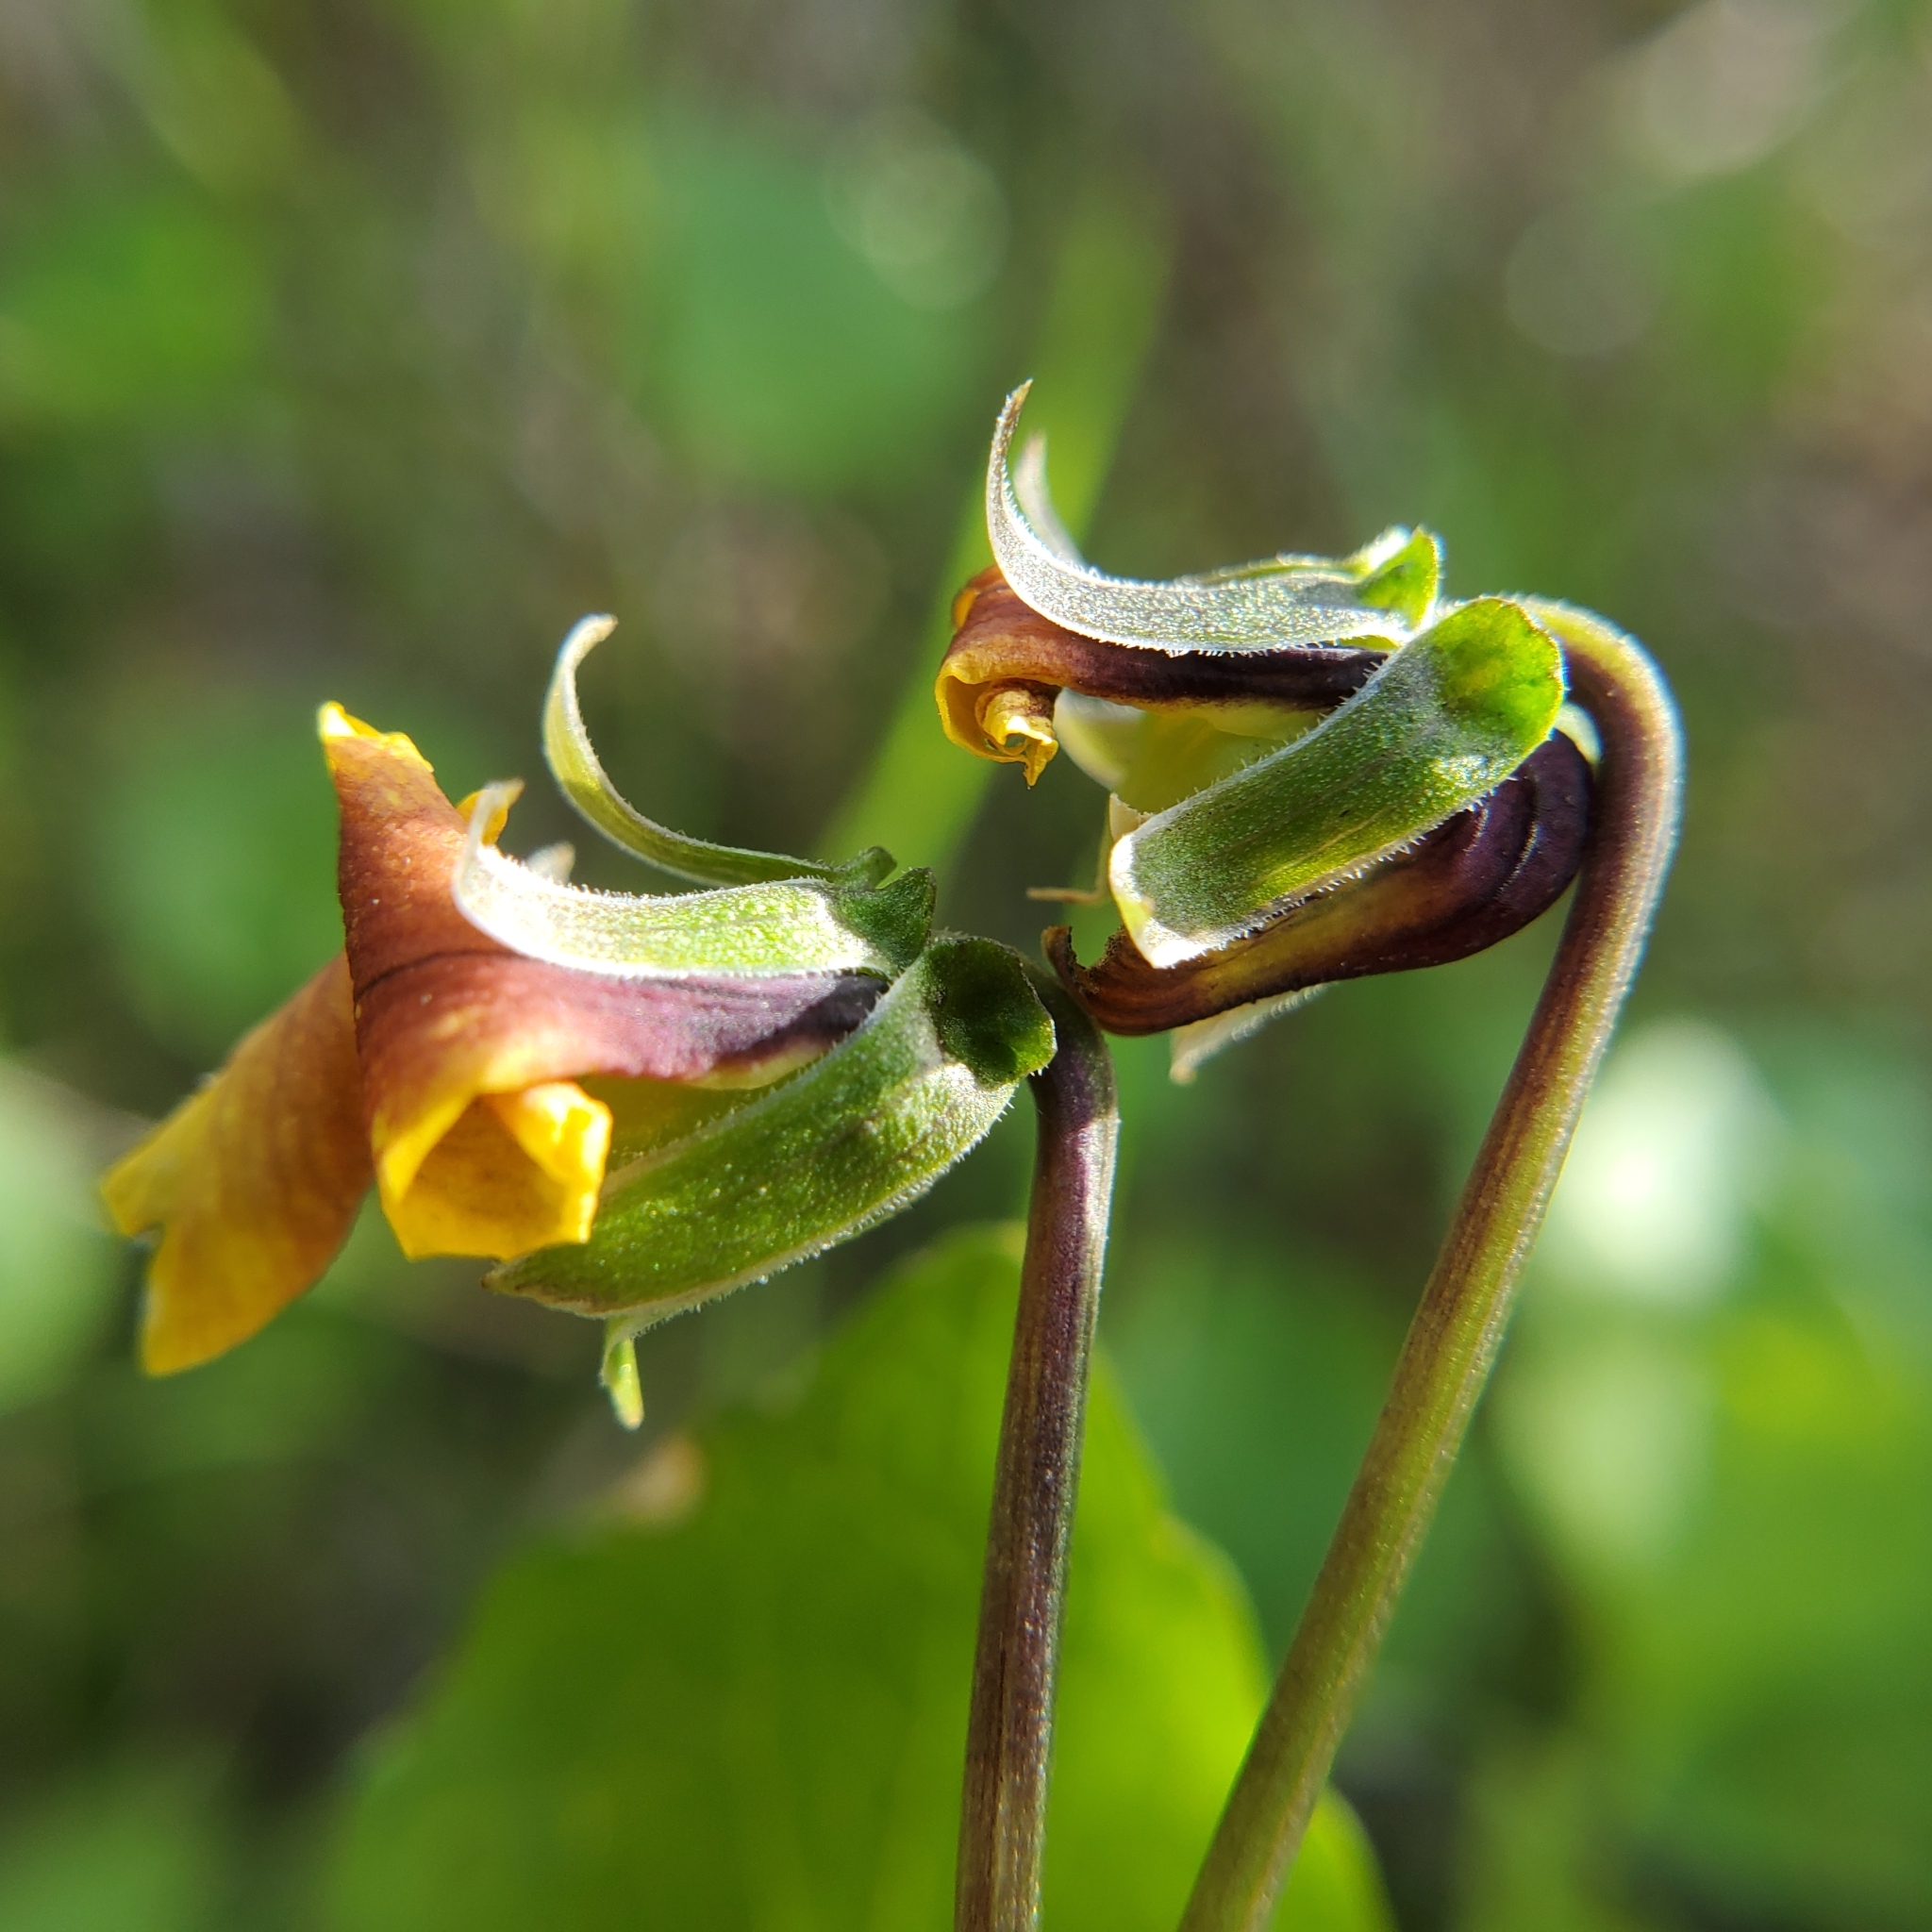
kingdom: Plantae
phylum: Tracheophyta
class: Magnoliopsida
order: Malpighiales
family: Violaceae
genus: Viola
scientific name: Viola pedunculata
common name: California golden violet
